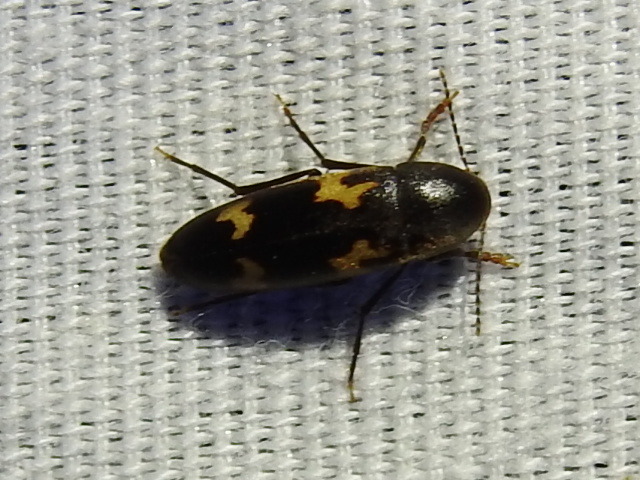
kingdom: Animalia
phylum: Arthropoda
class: Insecta
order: Coleoptera
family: Melandryidae
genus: Dircaea
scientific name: Dircaea liturata
